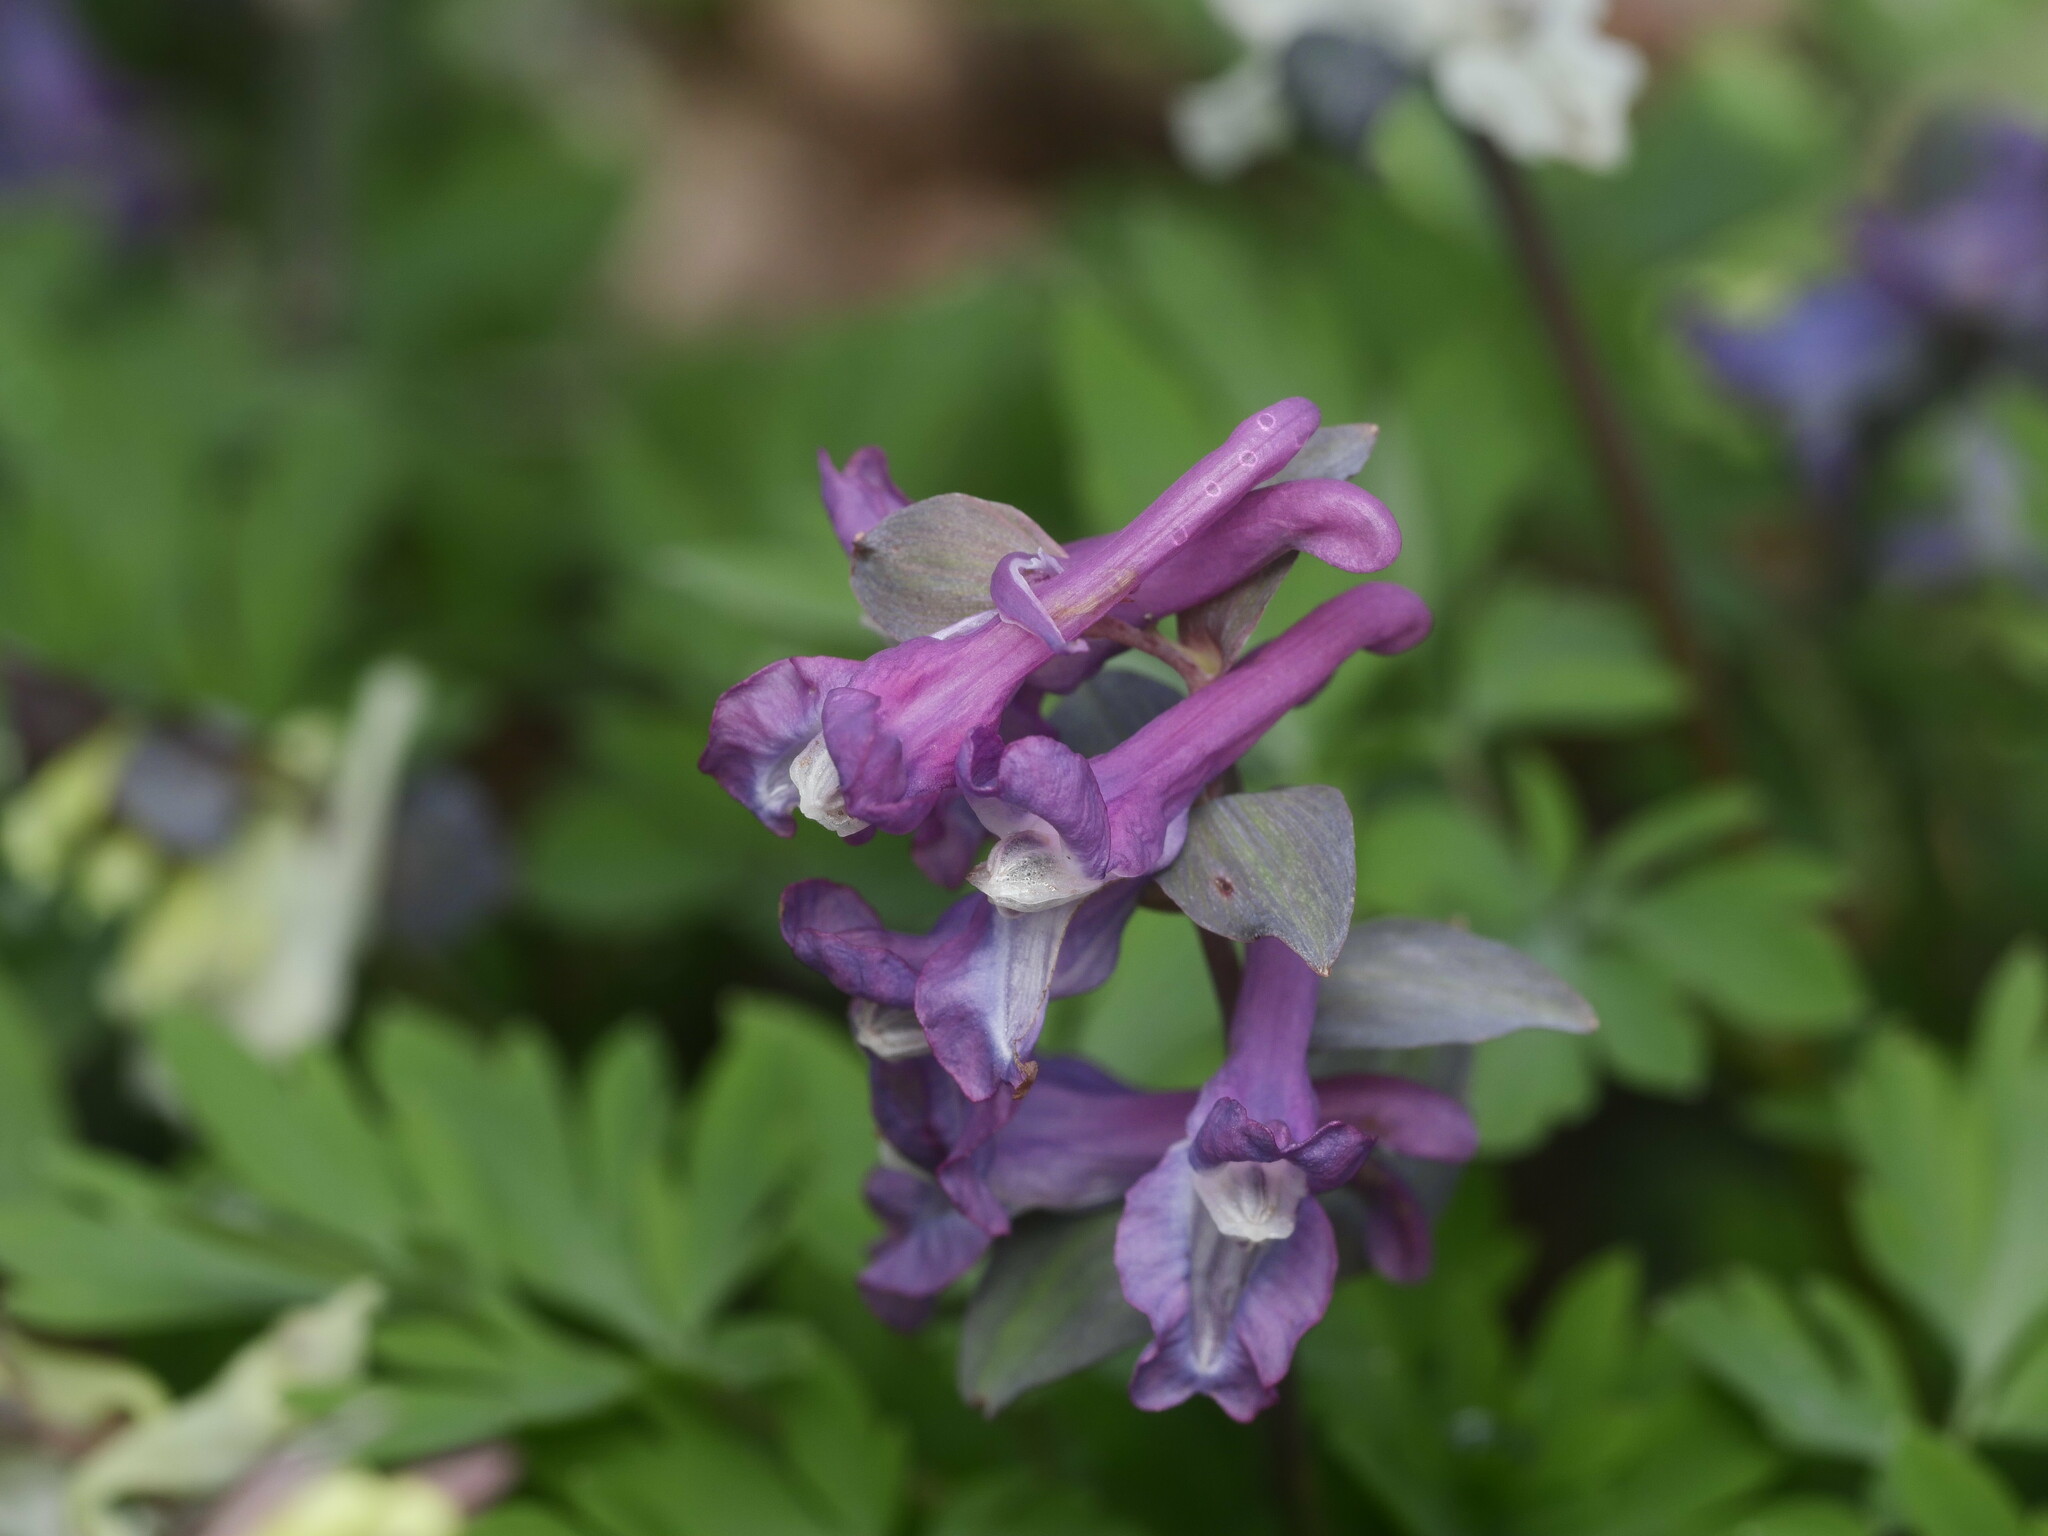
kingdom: Plantae
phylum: Tracheophyta
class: Magnoliopsida
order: Ranunculales
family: Papaveraceae
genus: Corydalis
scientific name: Corydalis cava
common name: Hollowroot
